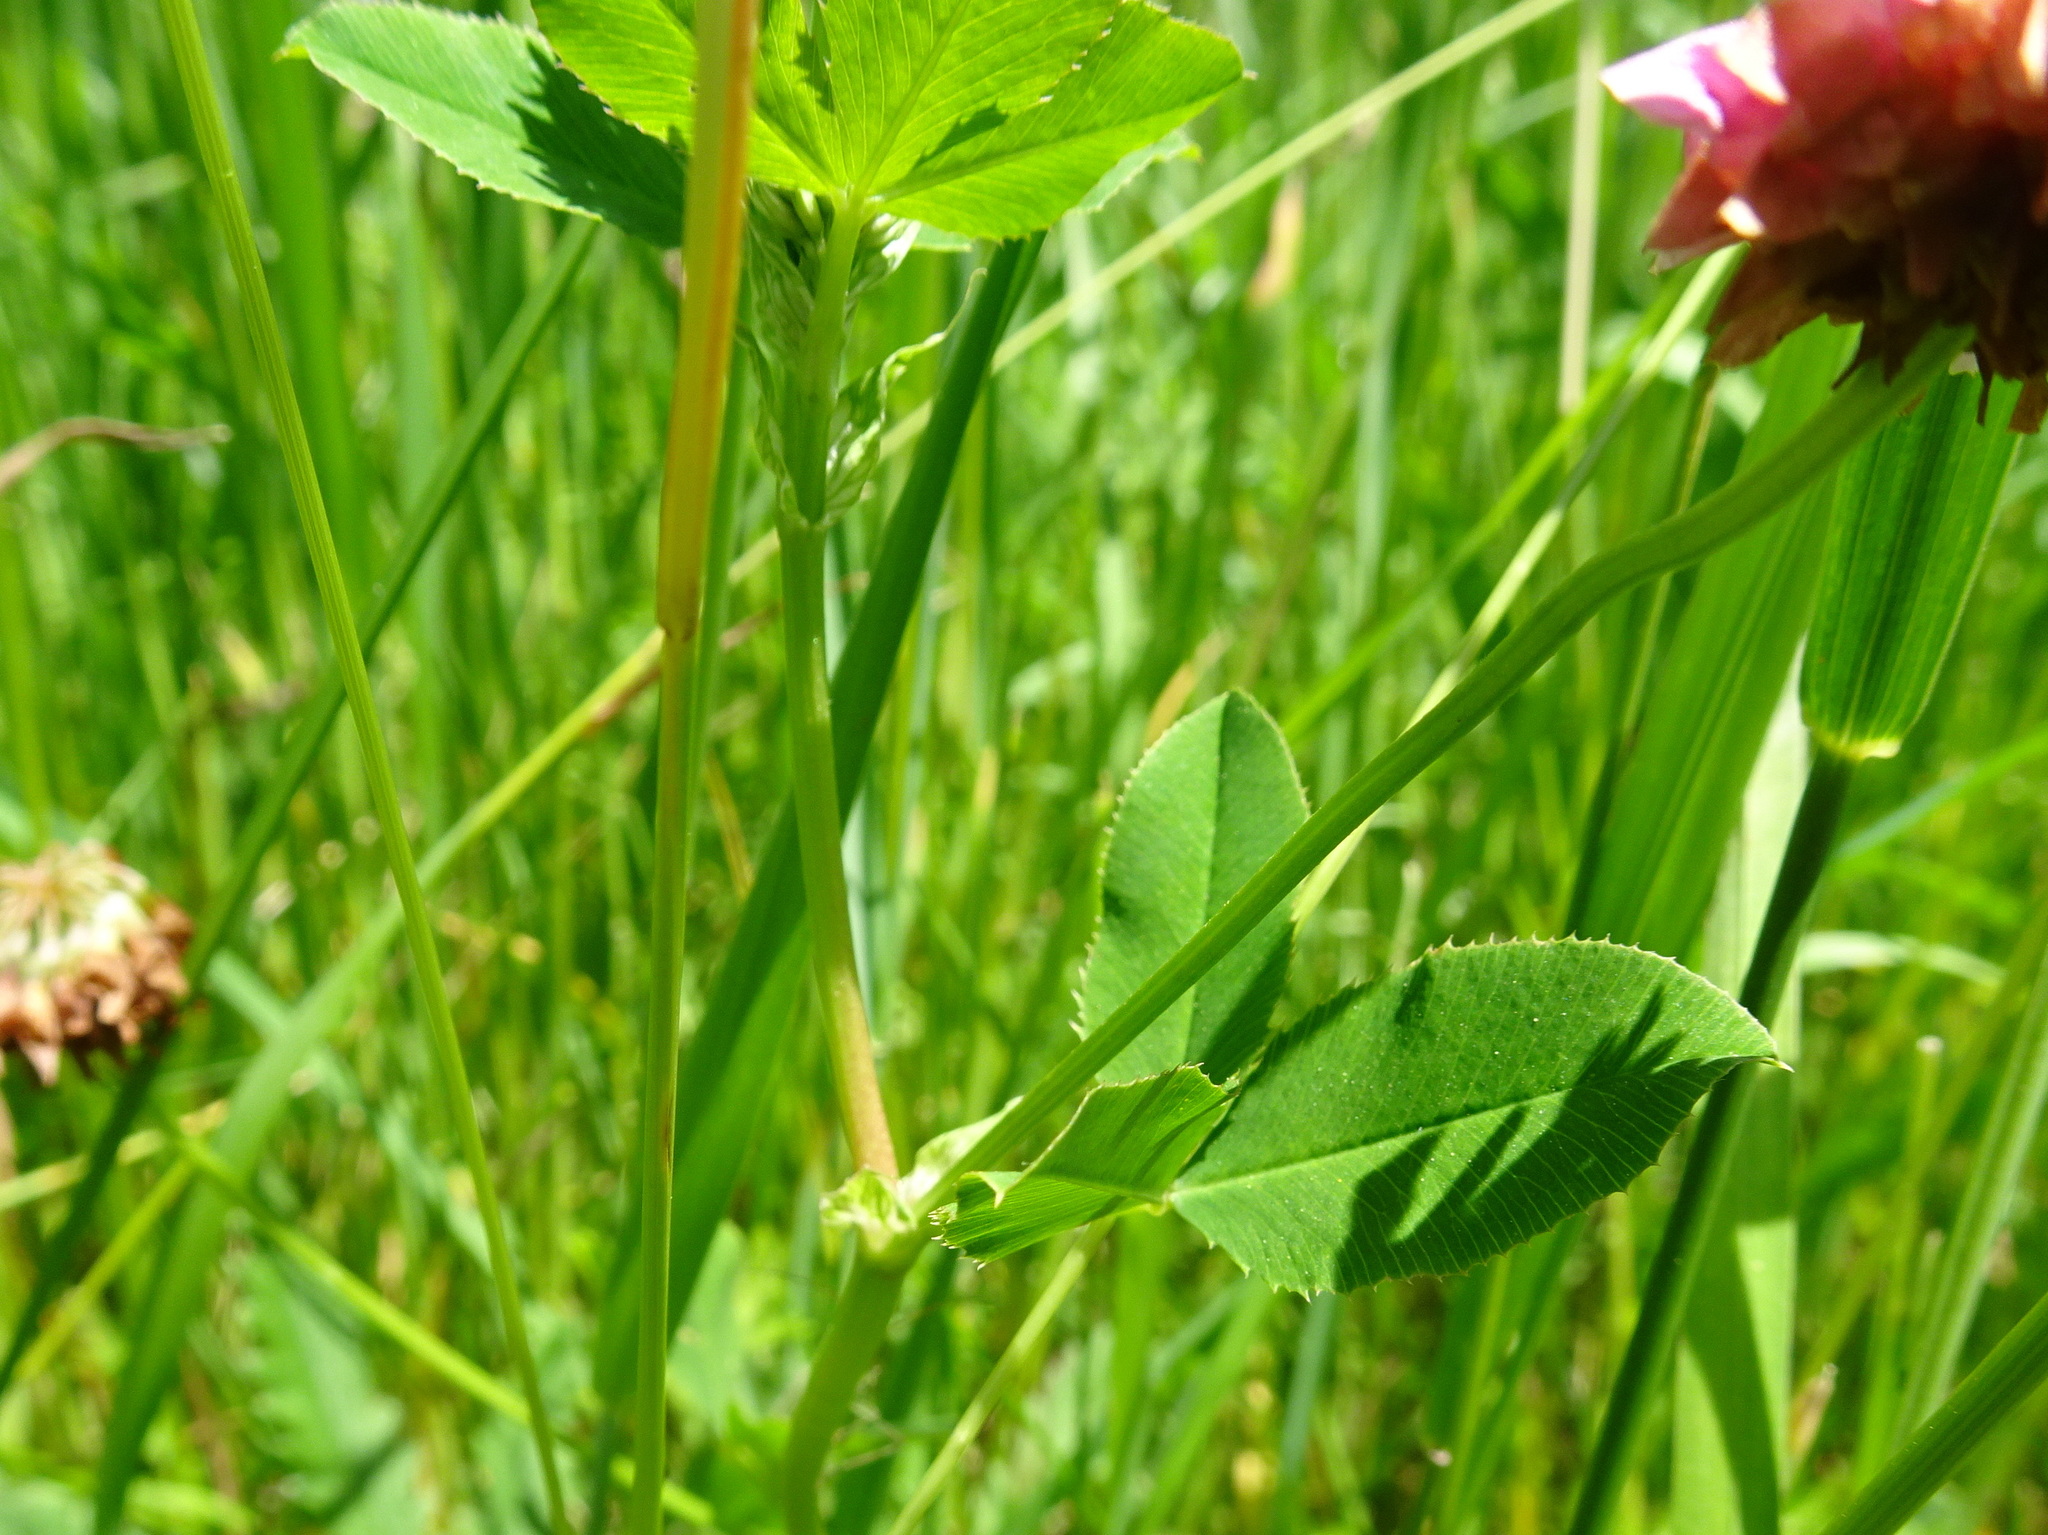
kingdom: Plantae
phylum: Tracheophyta
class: Magnoliopsida
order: Fabales
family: Fabaceae
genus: Trifolium
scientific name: Trifolium hybridum
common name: Alsike clover
